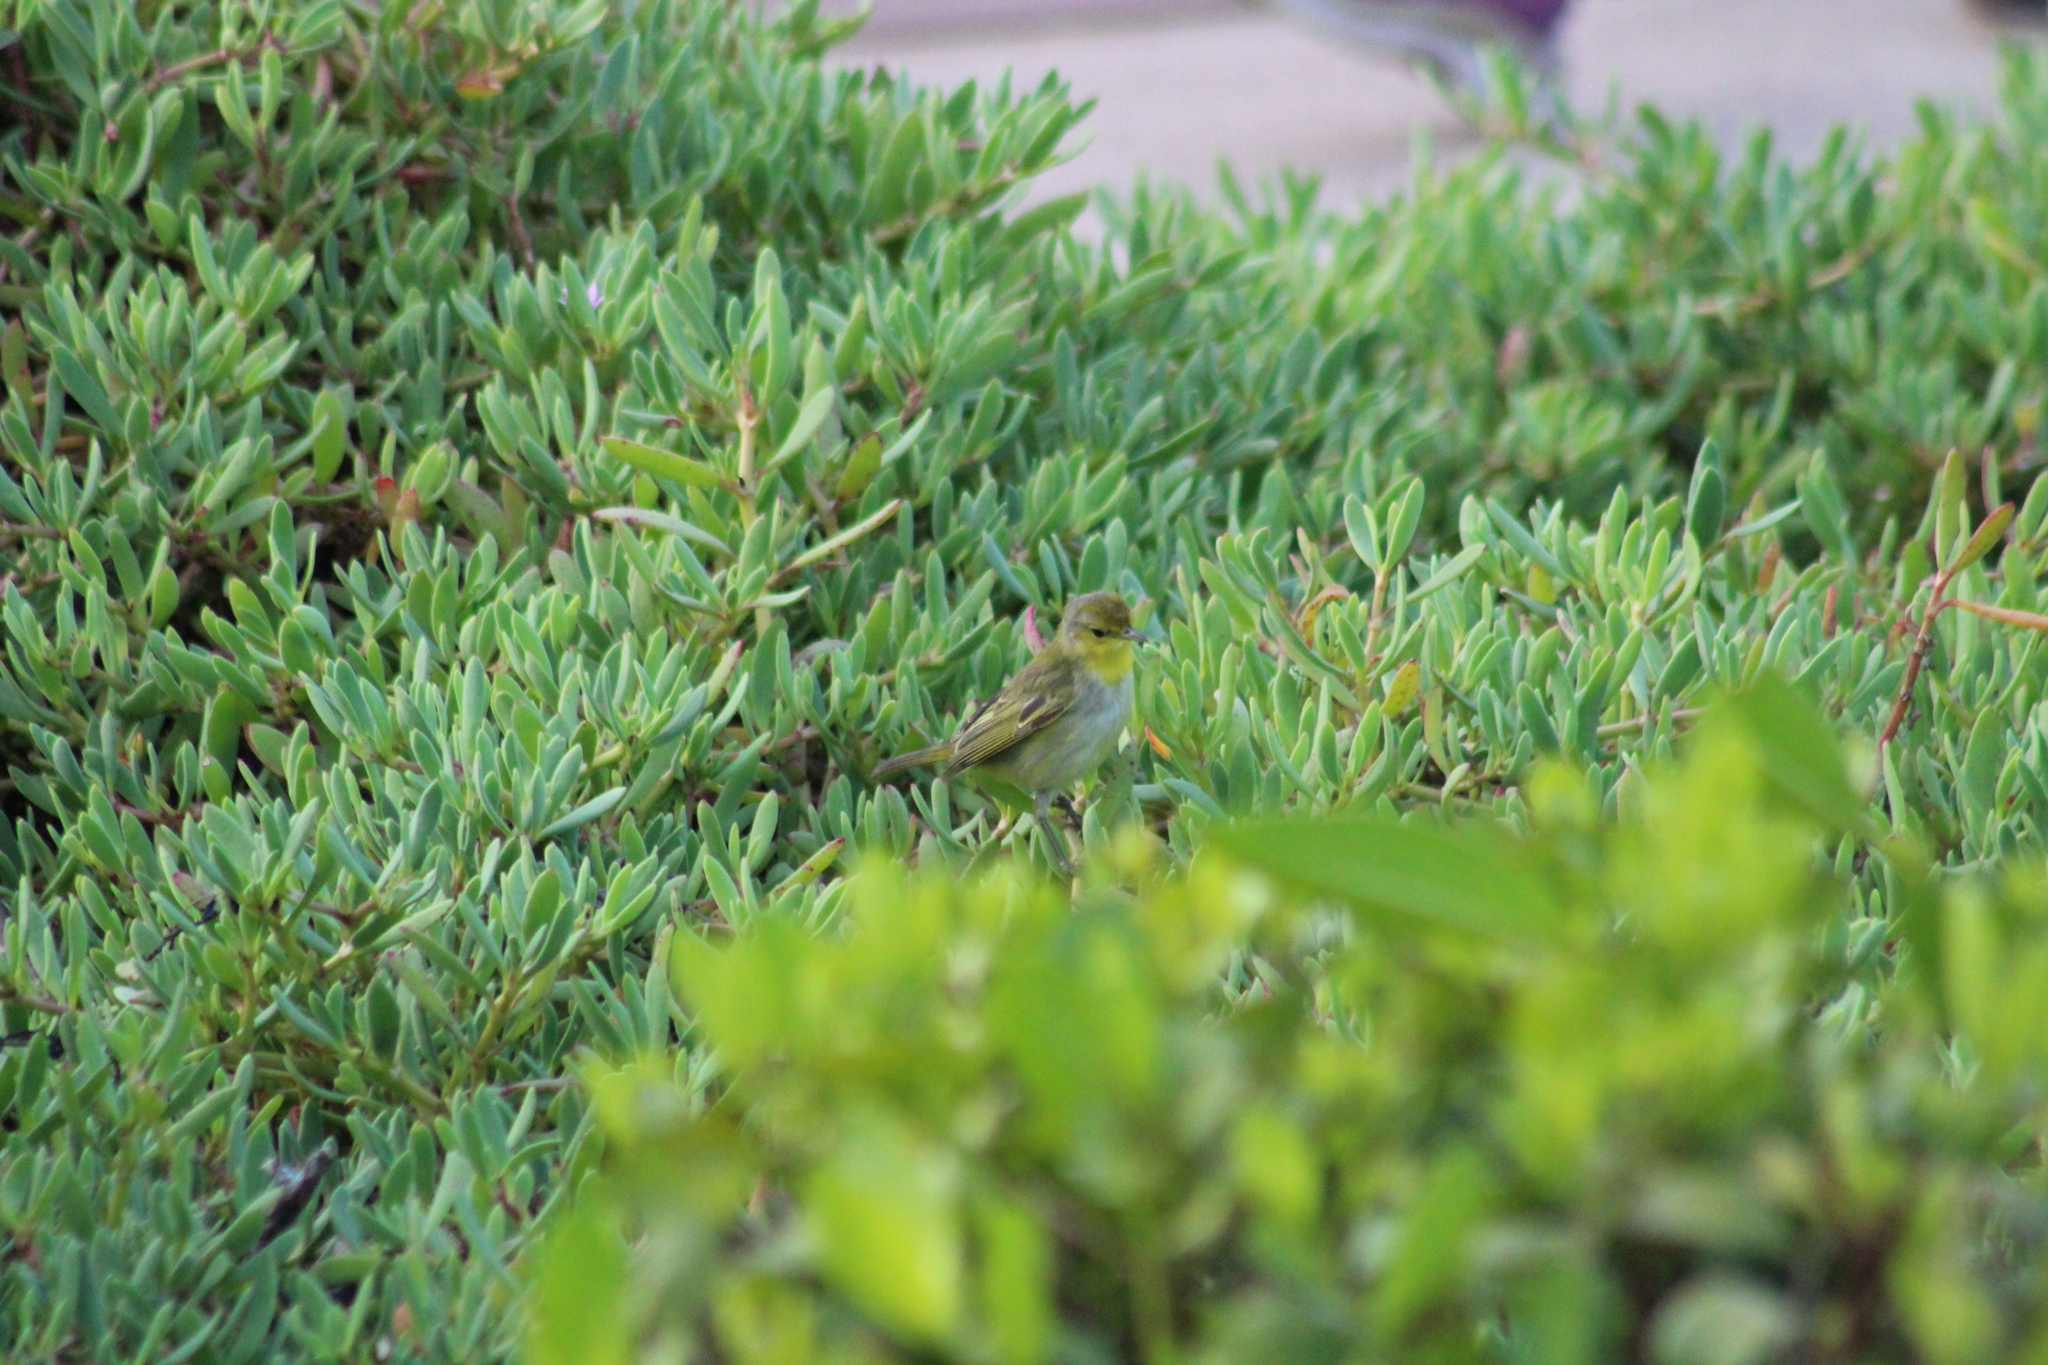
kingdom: Animalia
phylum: Chordata
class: Aves
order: Passeriformes
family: Parulidae
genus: Setophaga
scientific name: Setophaga petechia
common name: Yellow warbler
